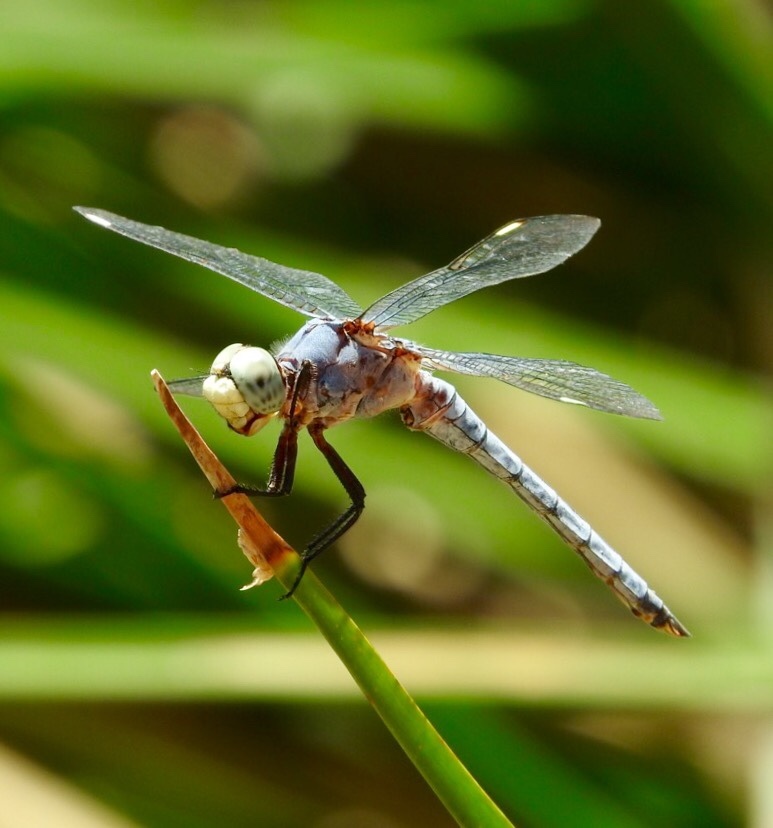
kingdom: Animalia
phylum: Arthropoda
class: Insecta
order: Odonata
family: Libellulidae
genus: Libellula
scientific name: Libellula comanche
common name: Comanche skimmer
